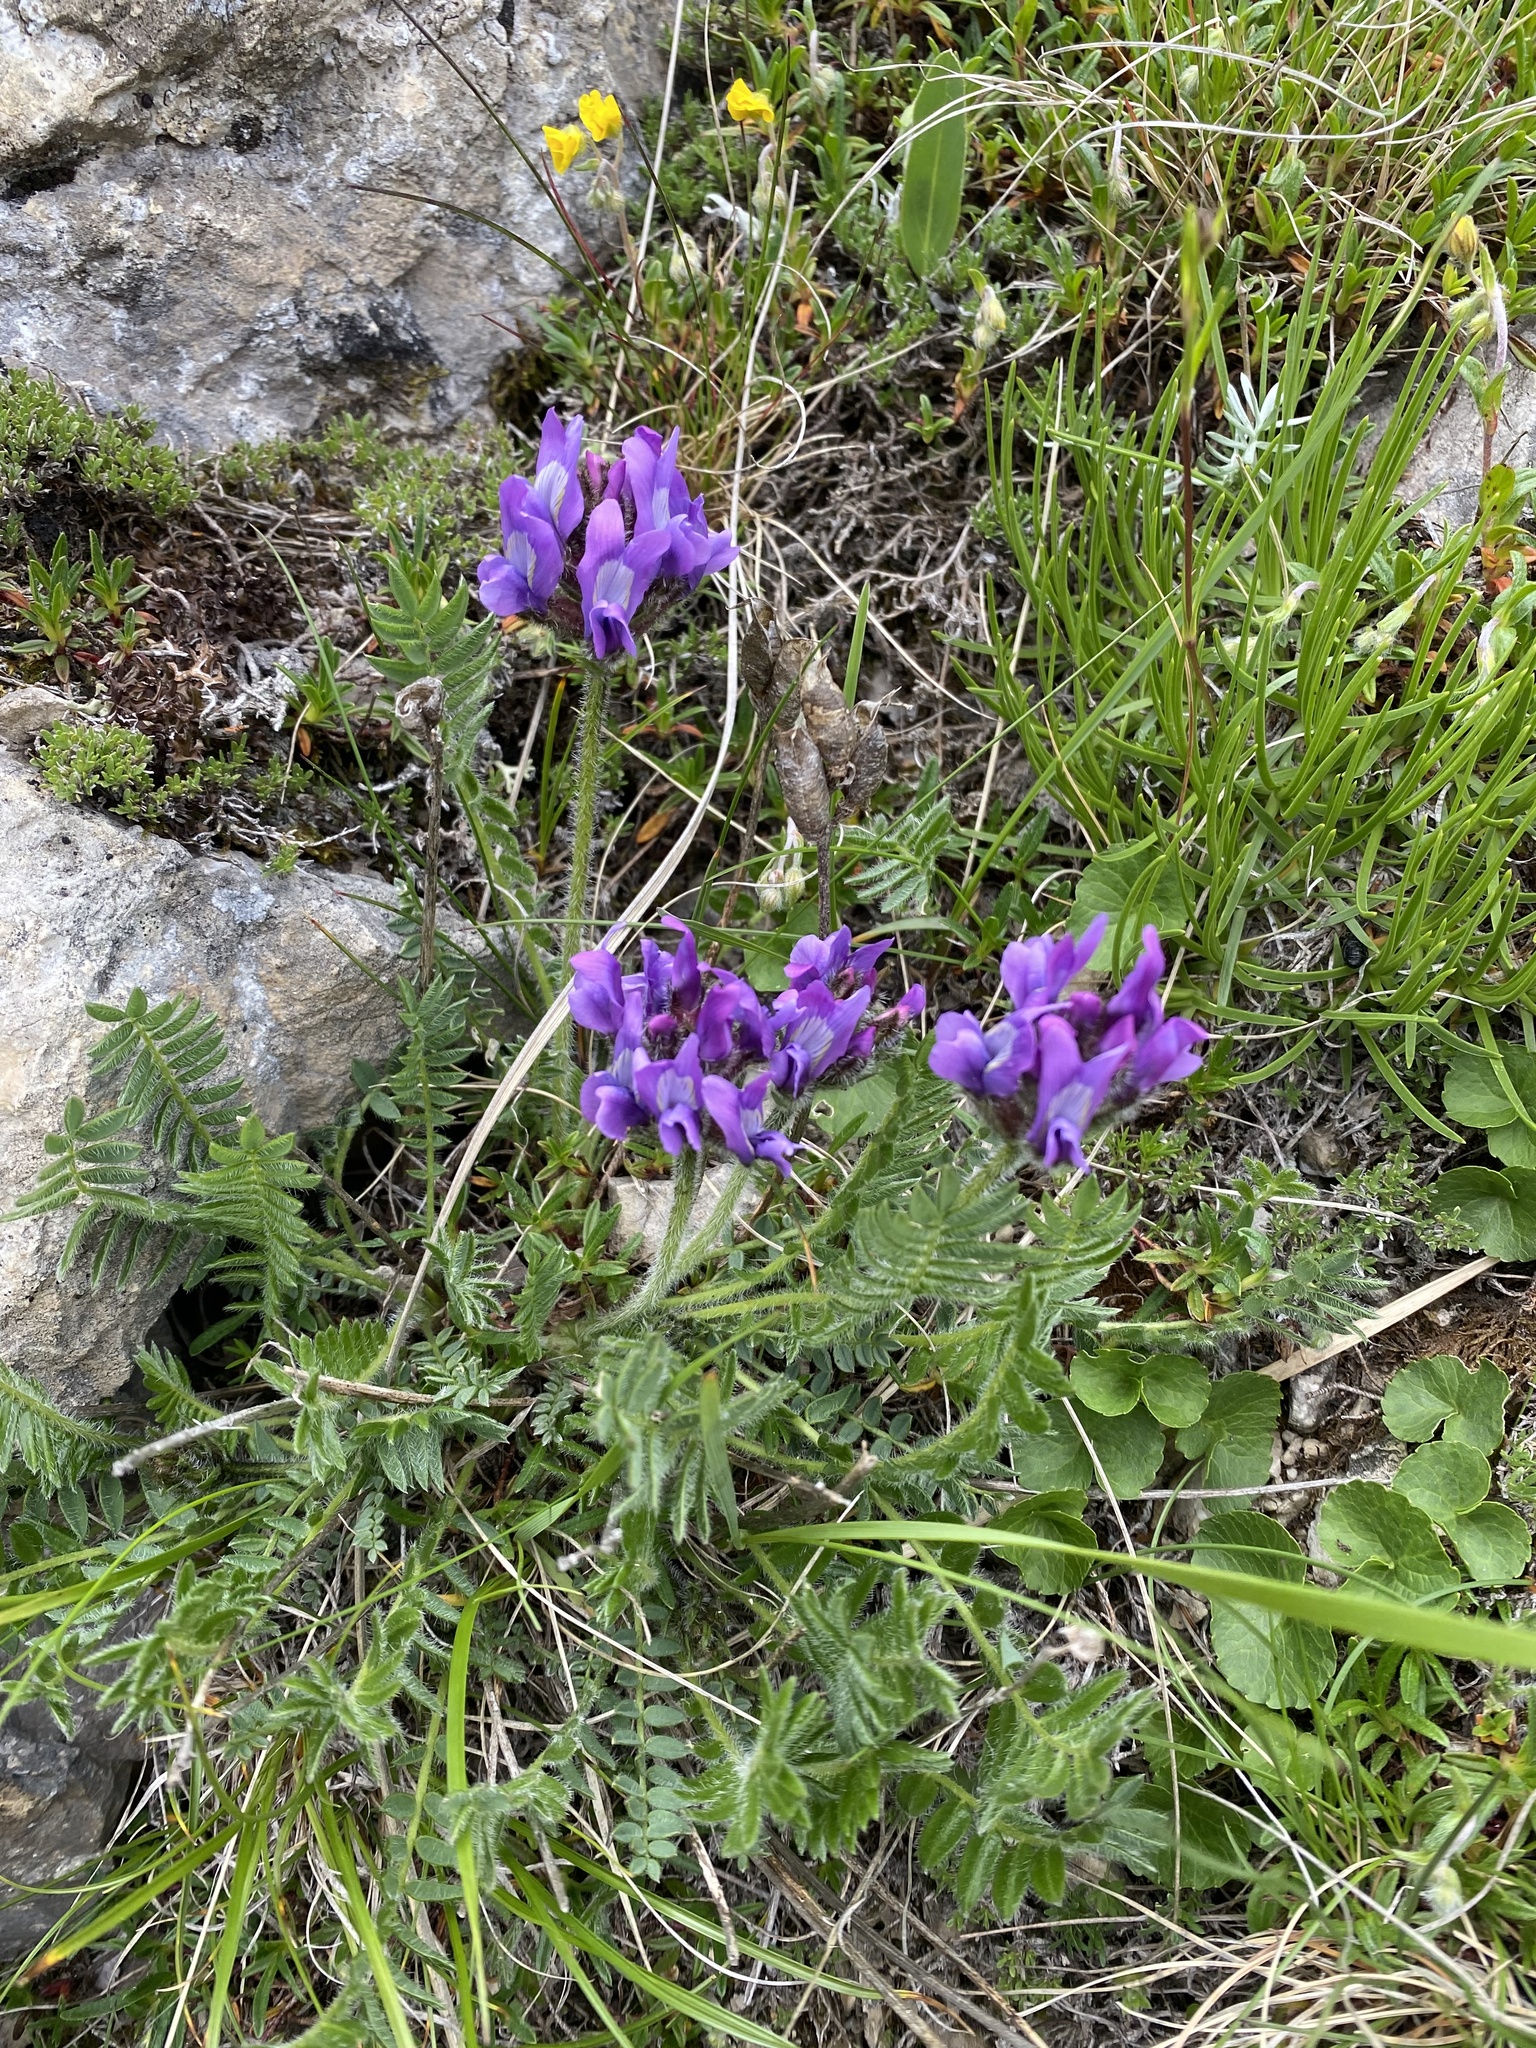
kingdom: Plantae
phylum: Tracheophyta
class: Magnoliopsida
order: Fabales
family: Fabaceae
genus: Oxytropis
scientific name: Oxytropis lazica
